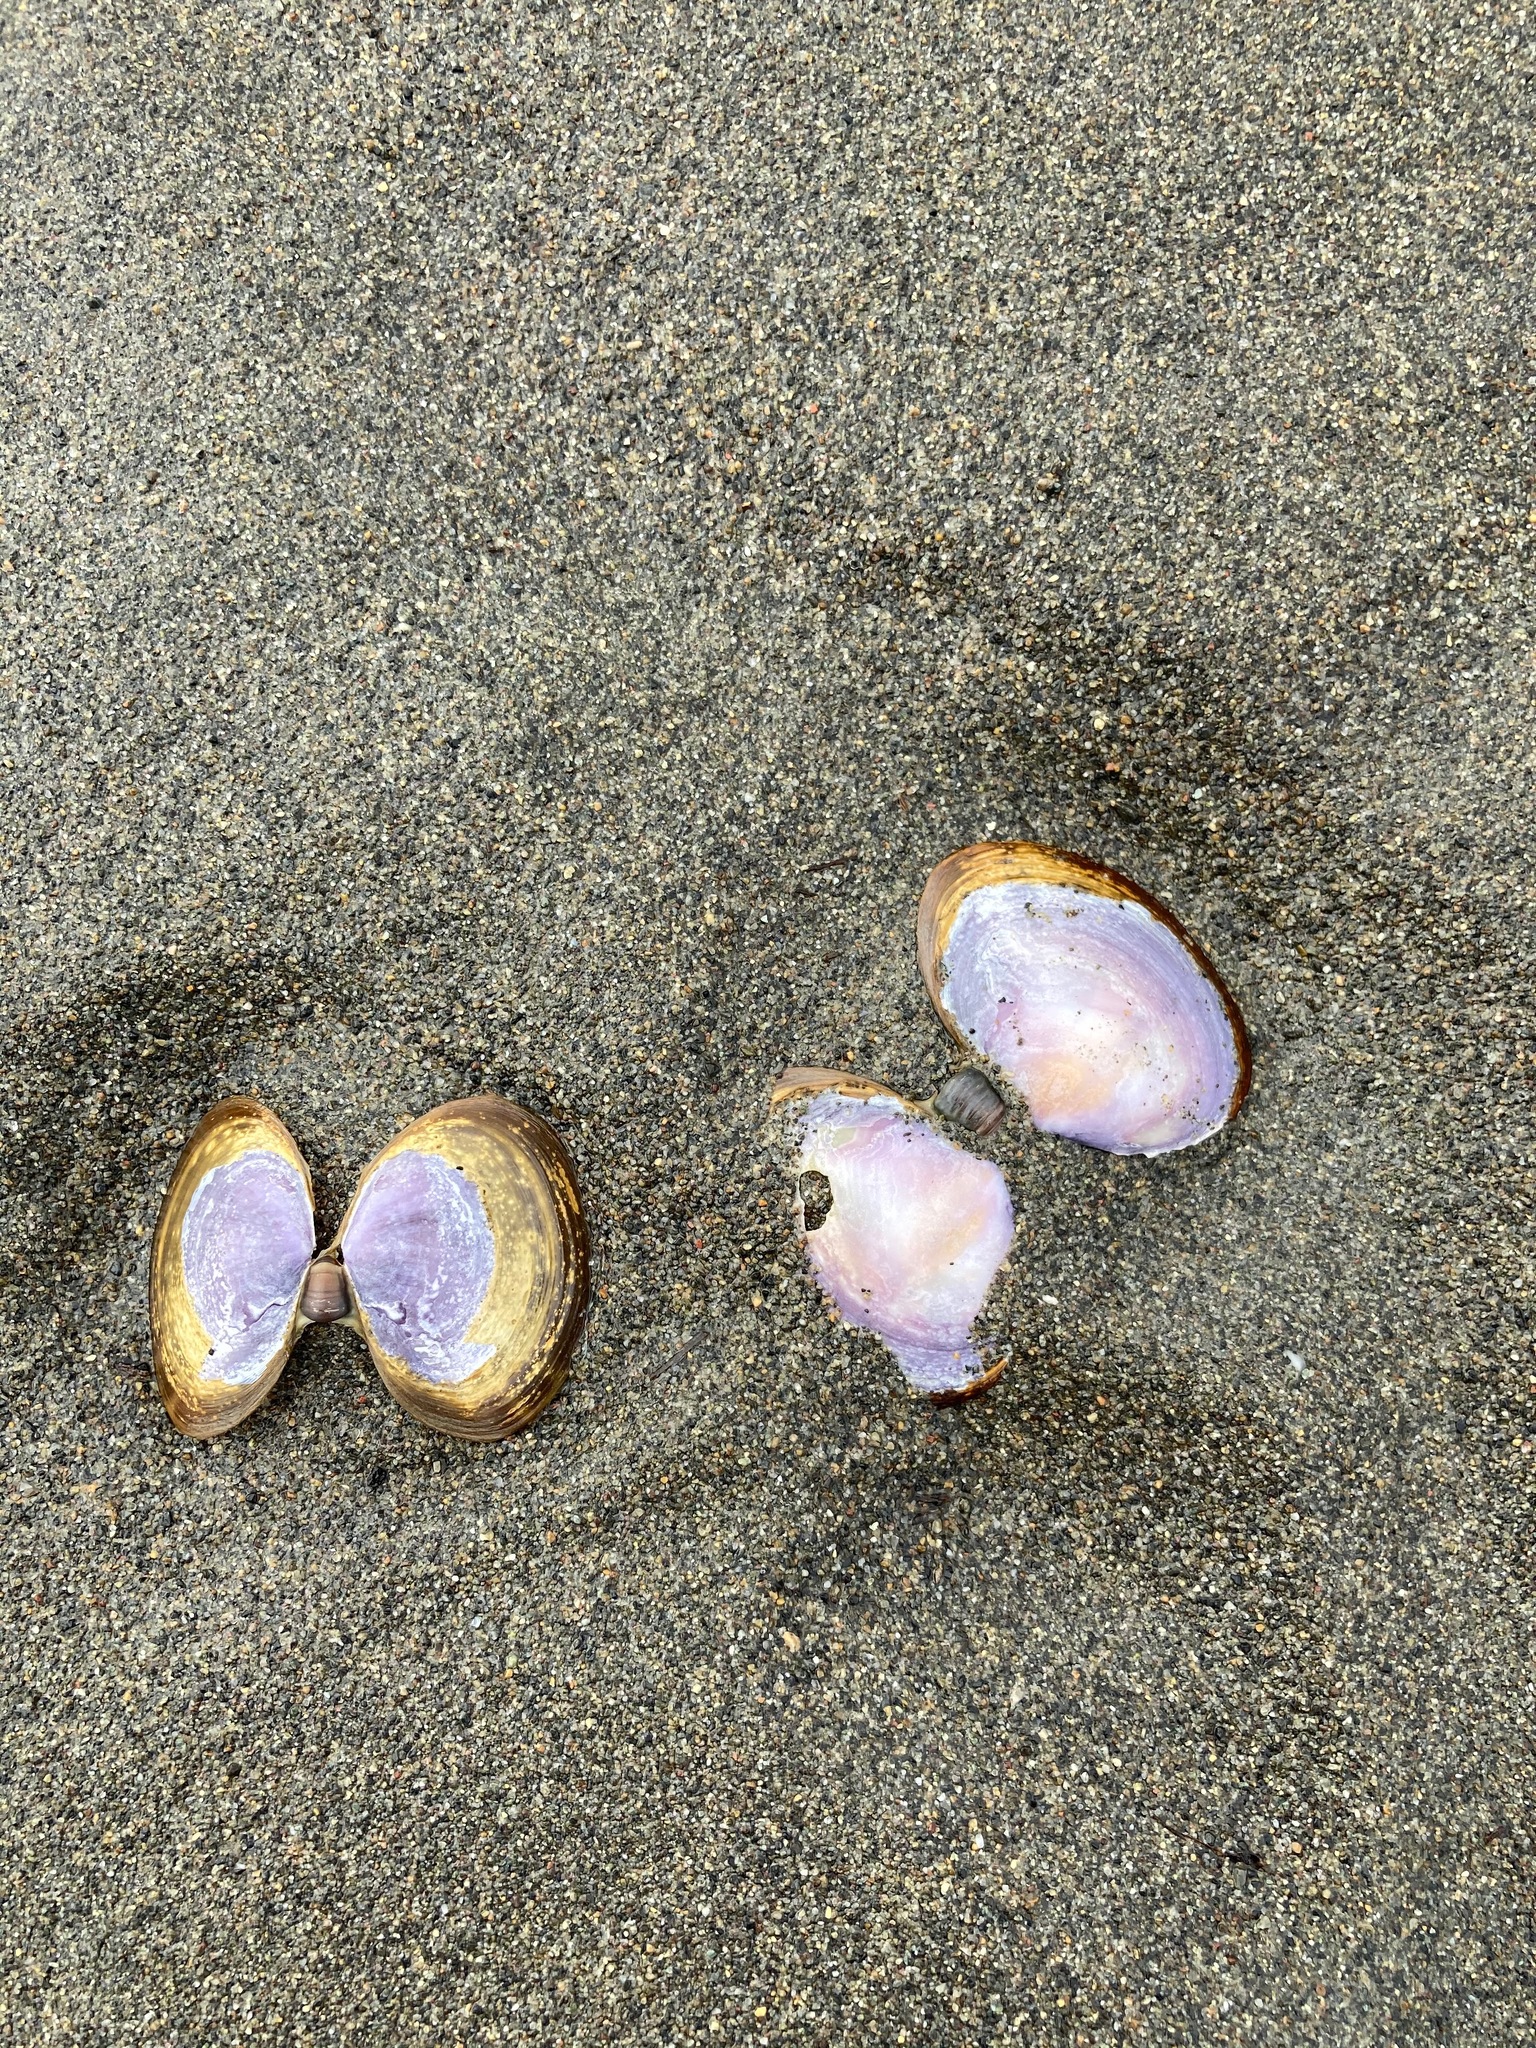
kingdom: Animalia
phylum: Mollusca
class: Bivalvia
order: Cardiida
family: Psammobiidae
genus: Nuttallia
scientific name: Nuttallia obscurata
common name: Purple mahogany-clam
